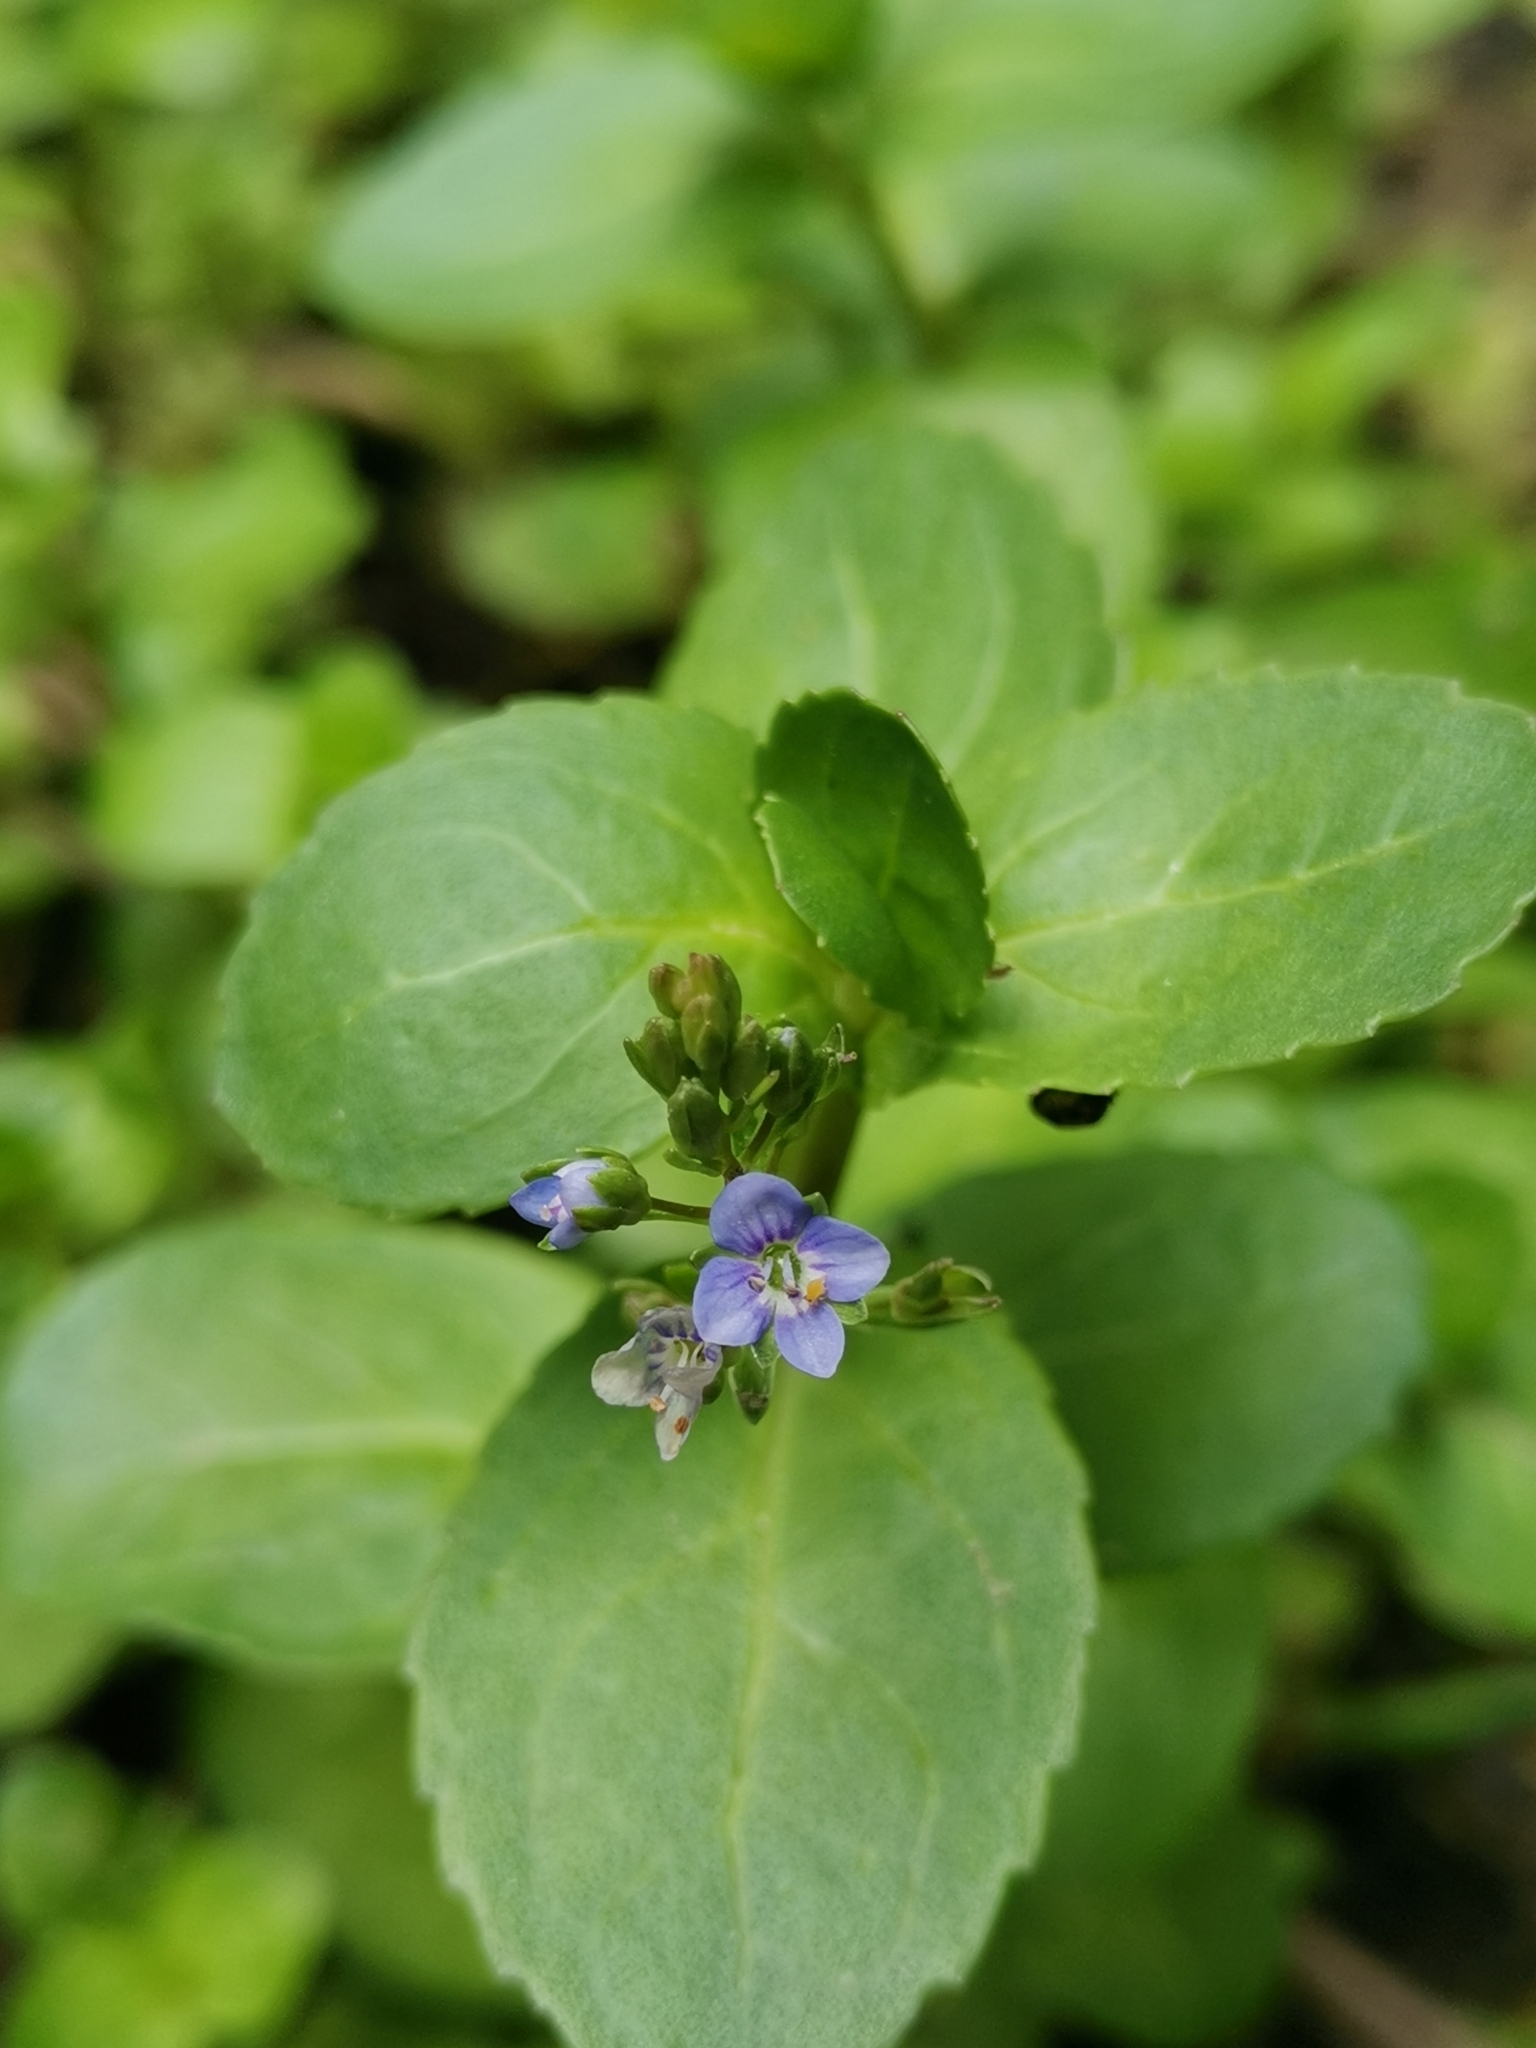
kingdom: Plantae
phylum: Tracheophyta
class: Magnoliopsida
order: Lamiales
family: Plantaginaceae
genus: Veronica
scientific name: Veronica beccabunga
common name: Brooklime
